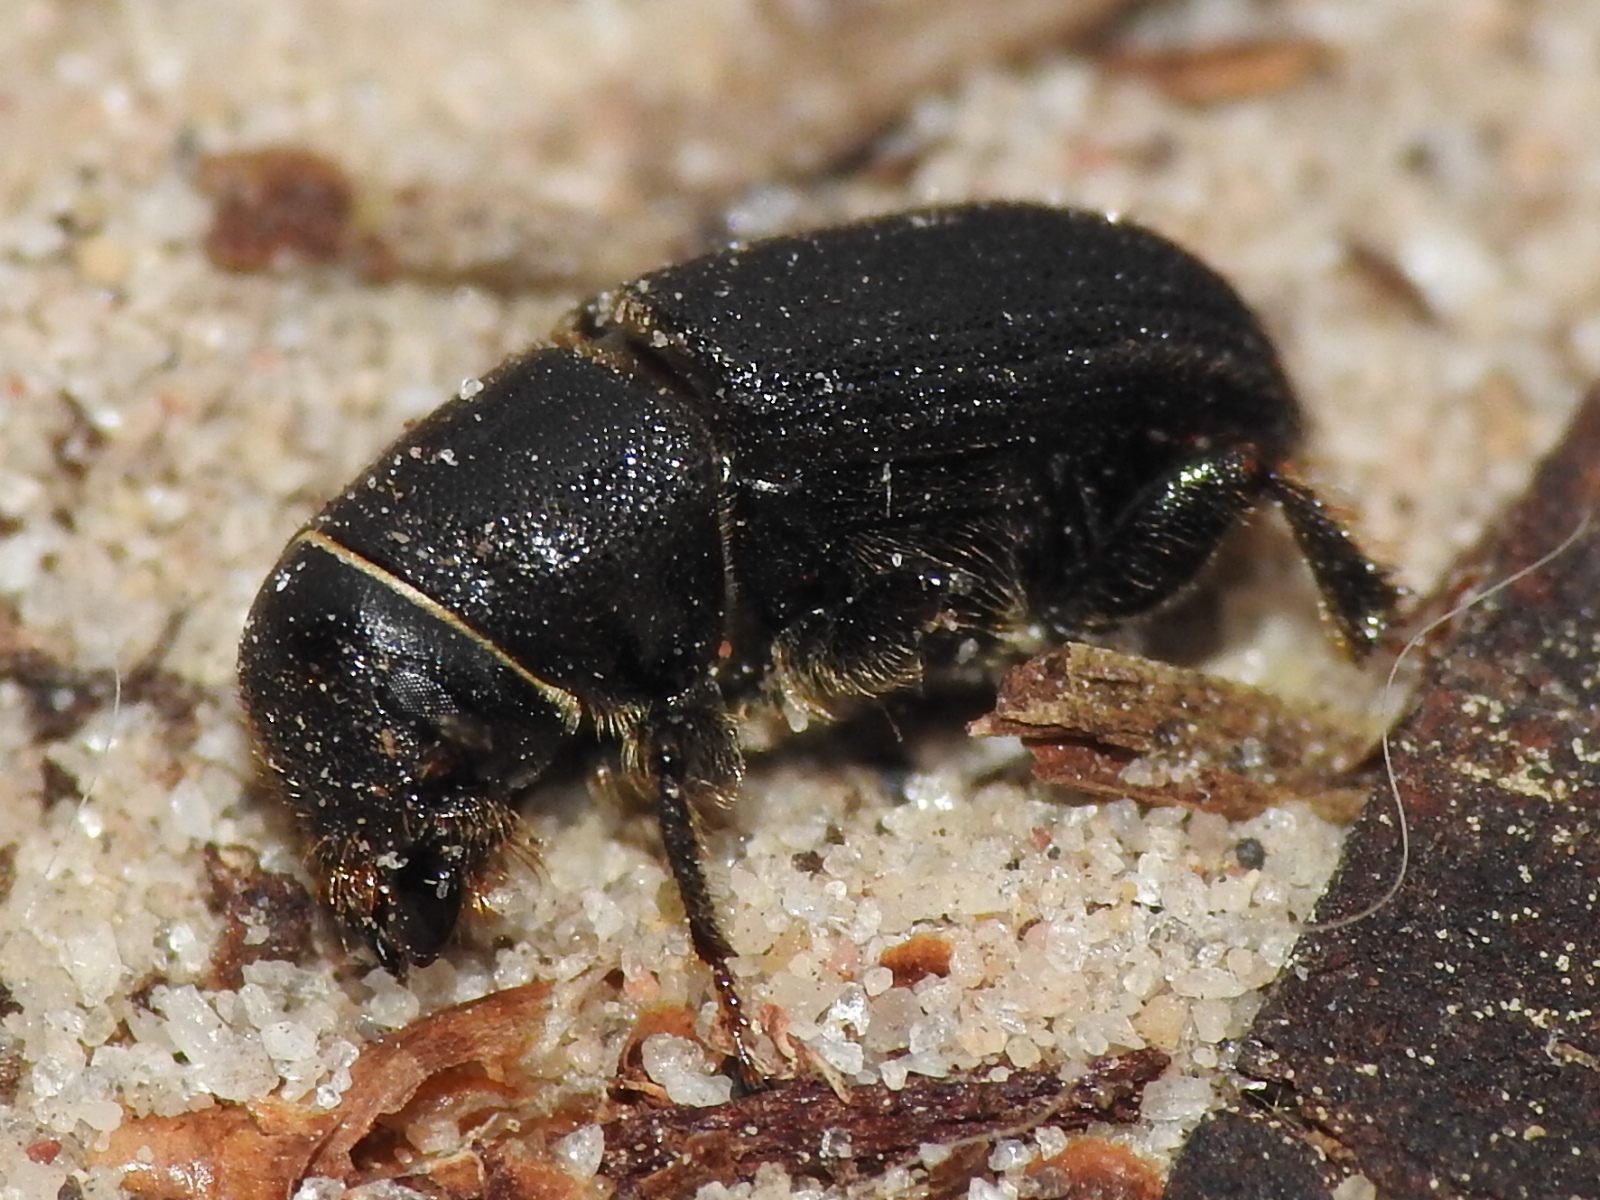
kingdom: Animalia
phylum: Arthropoda
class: Insecta
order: Coleoptera
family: Curculionidae
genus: Dendroctonus
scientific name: Dendroctonus terebrans
